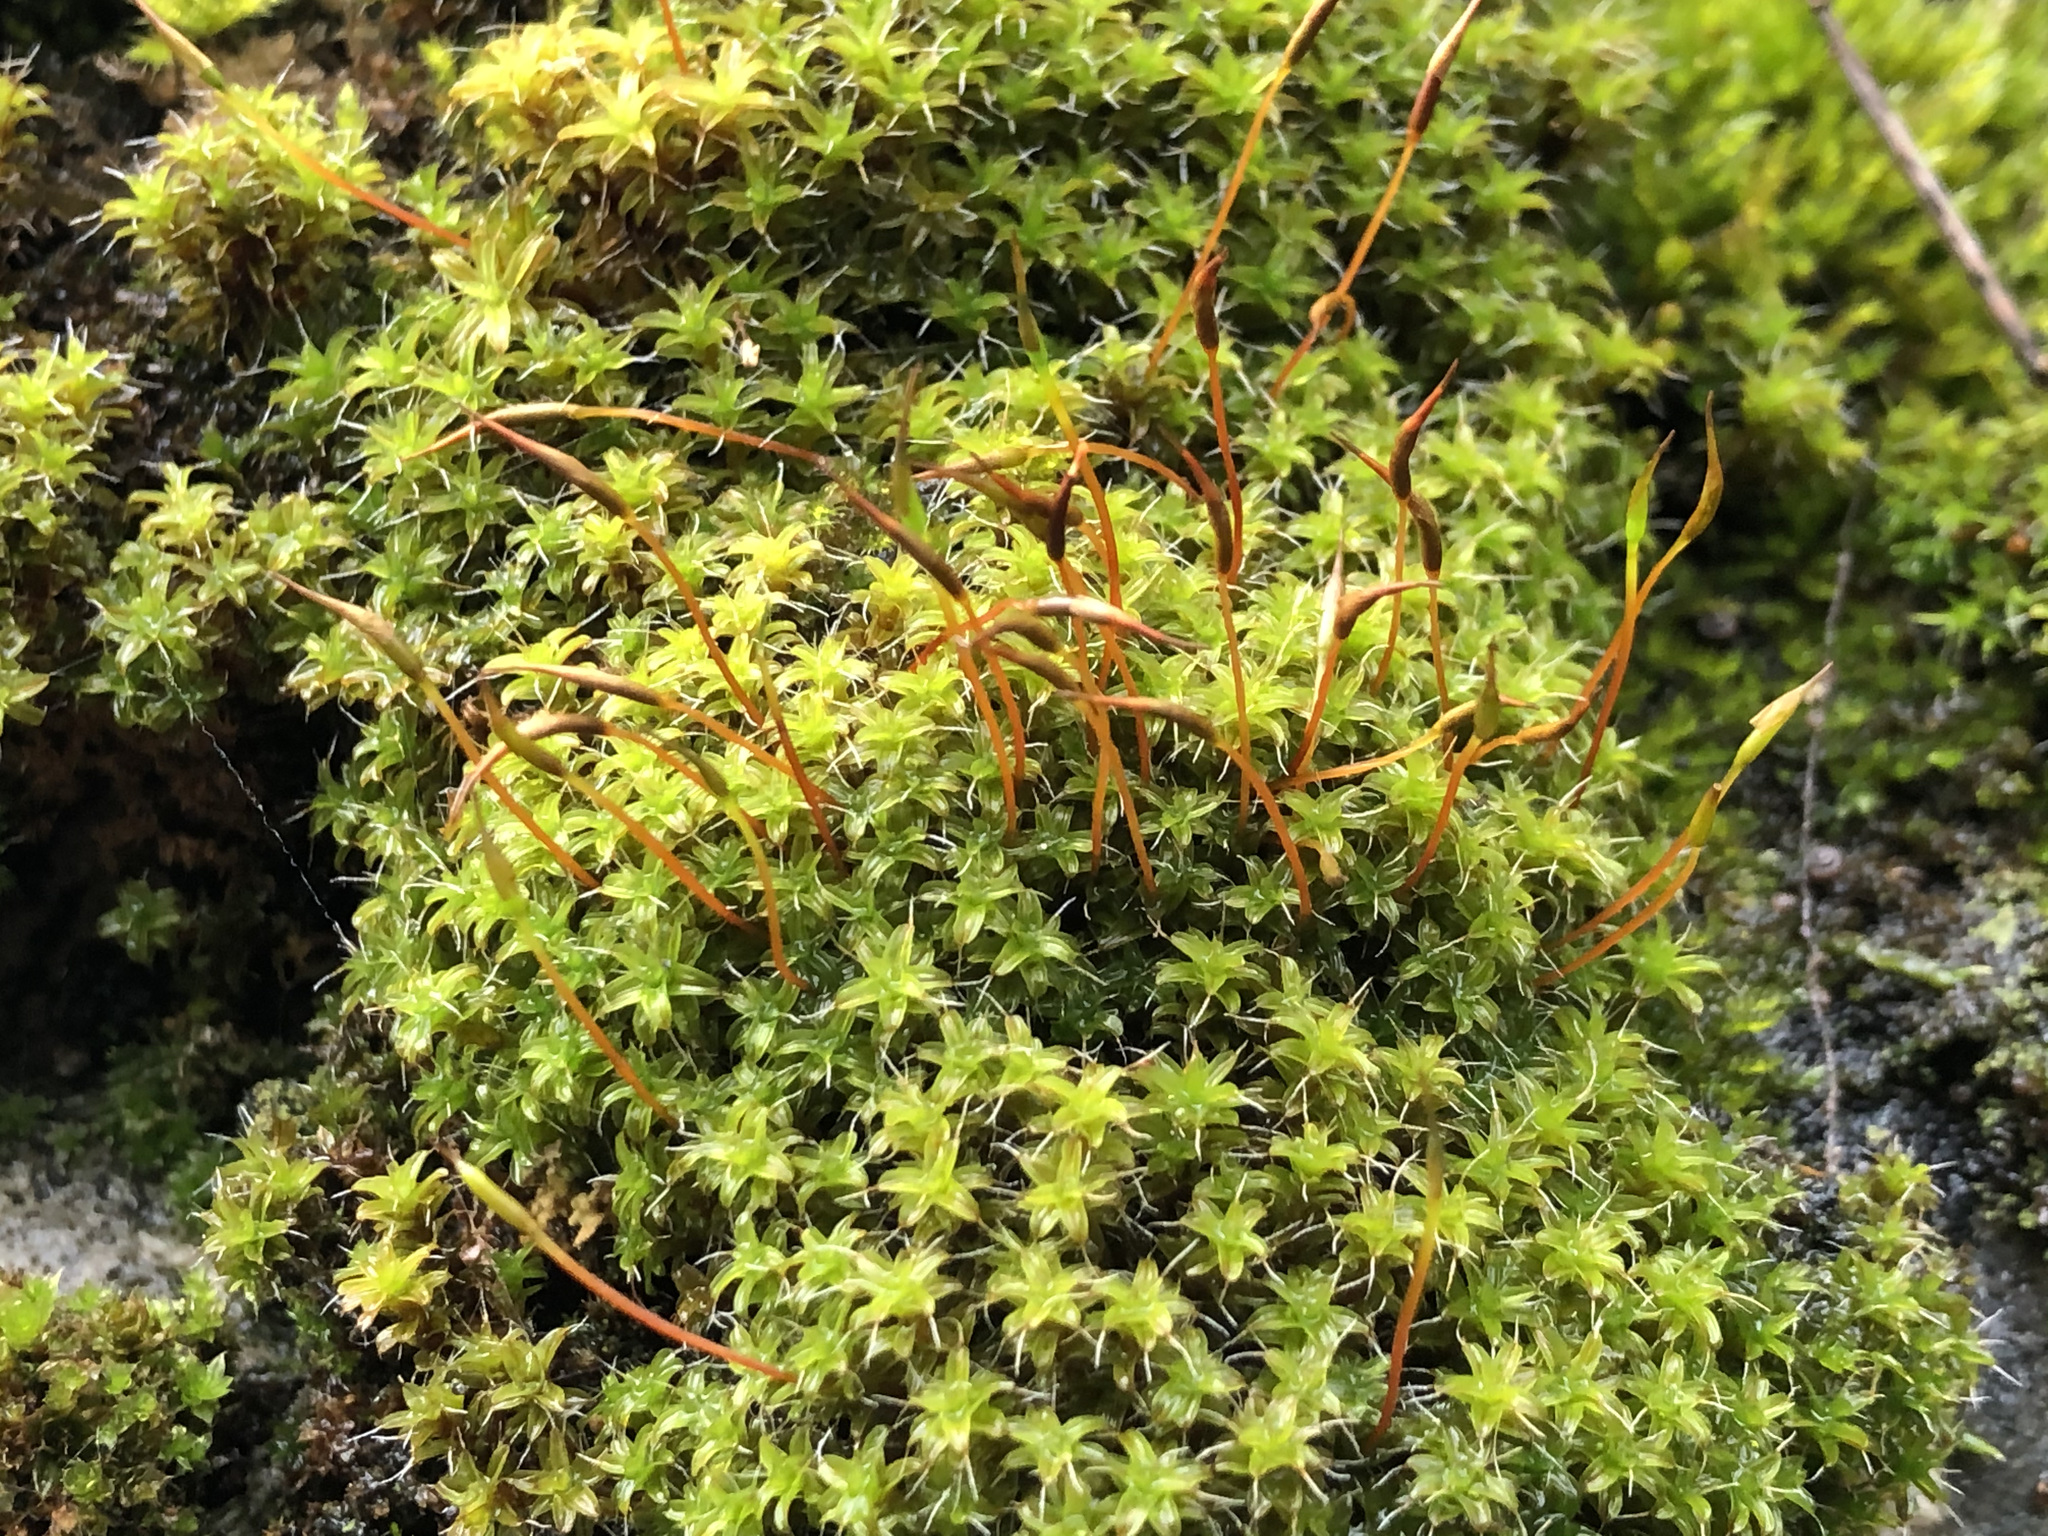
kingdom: Plantae
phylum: Bryophyta
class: Bryopsida
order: Pottiales
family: Pottiaceae
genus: Syntrichia
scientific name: Syntrichia ruralis
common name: Sidewalk screw moss
